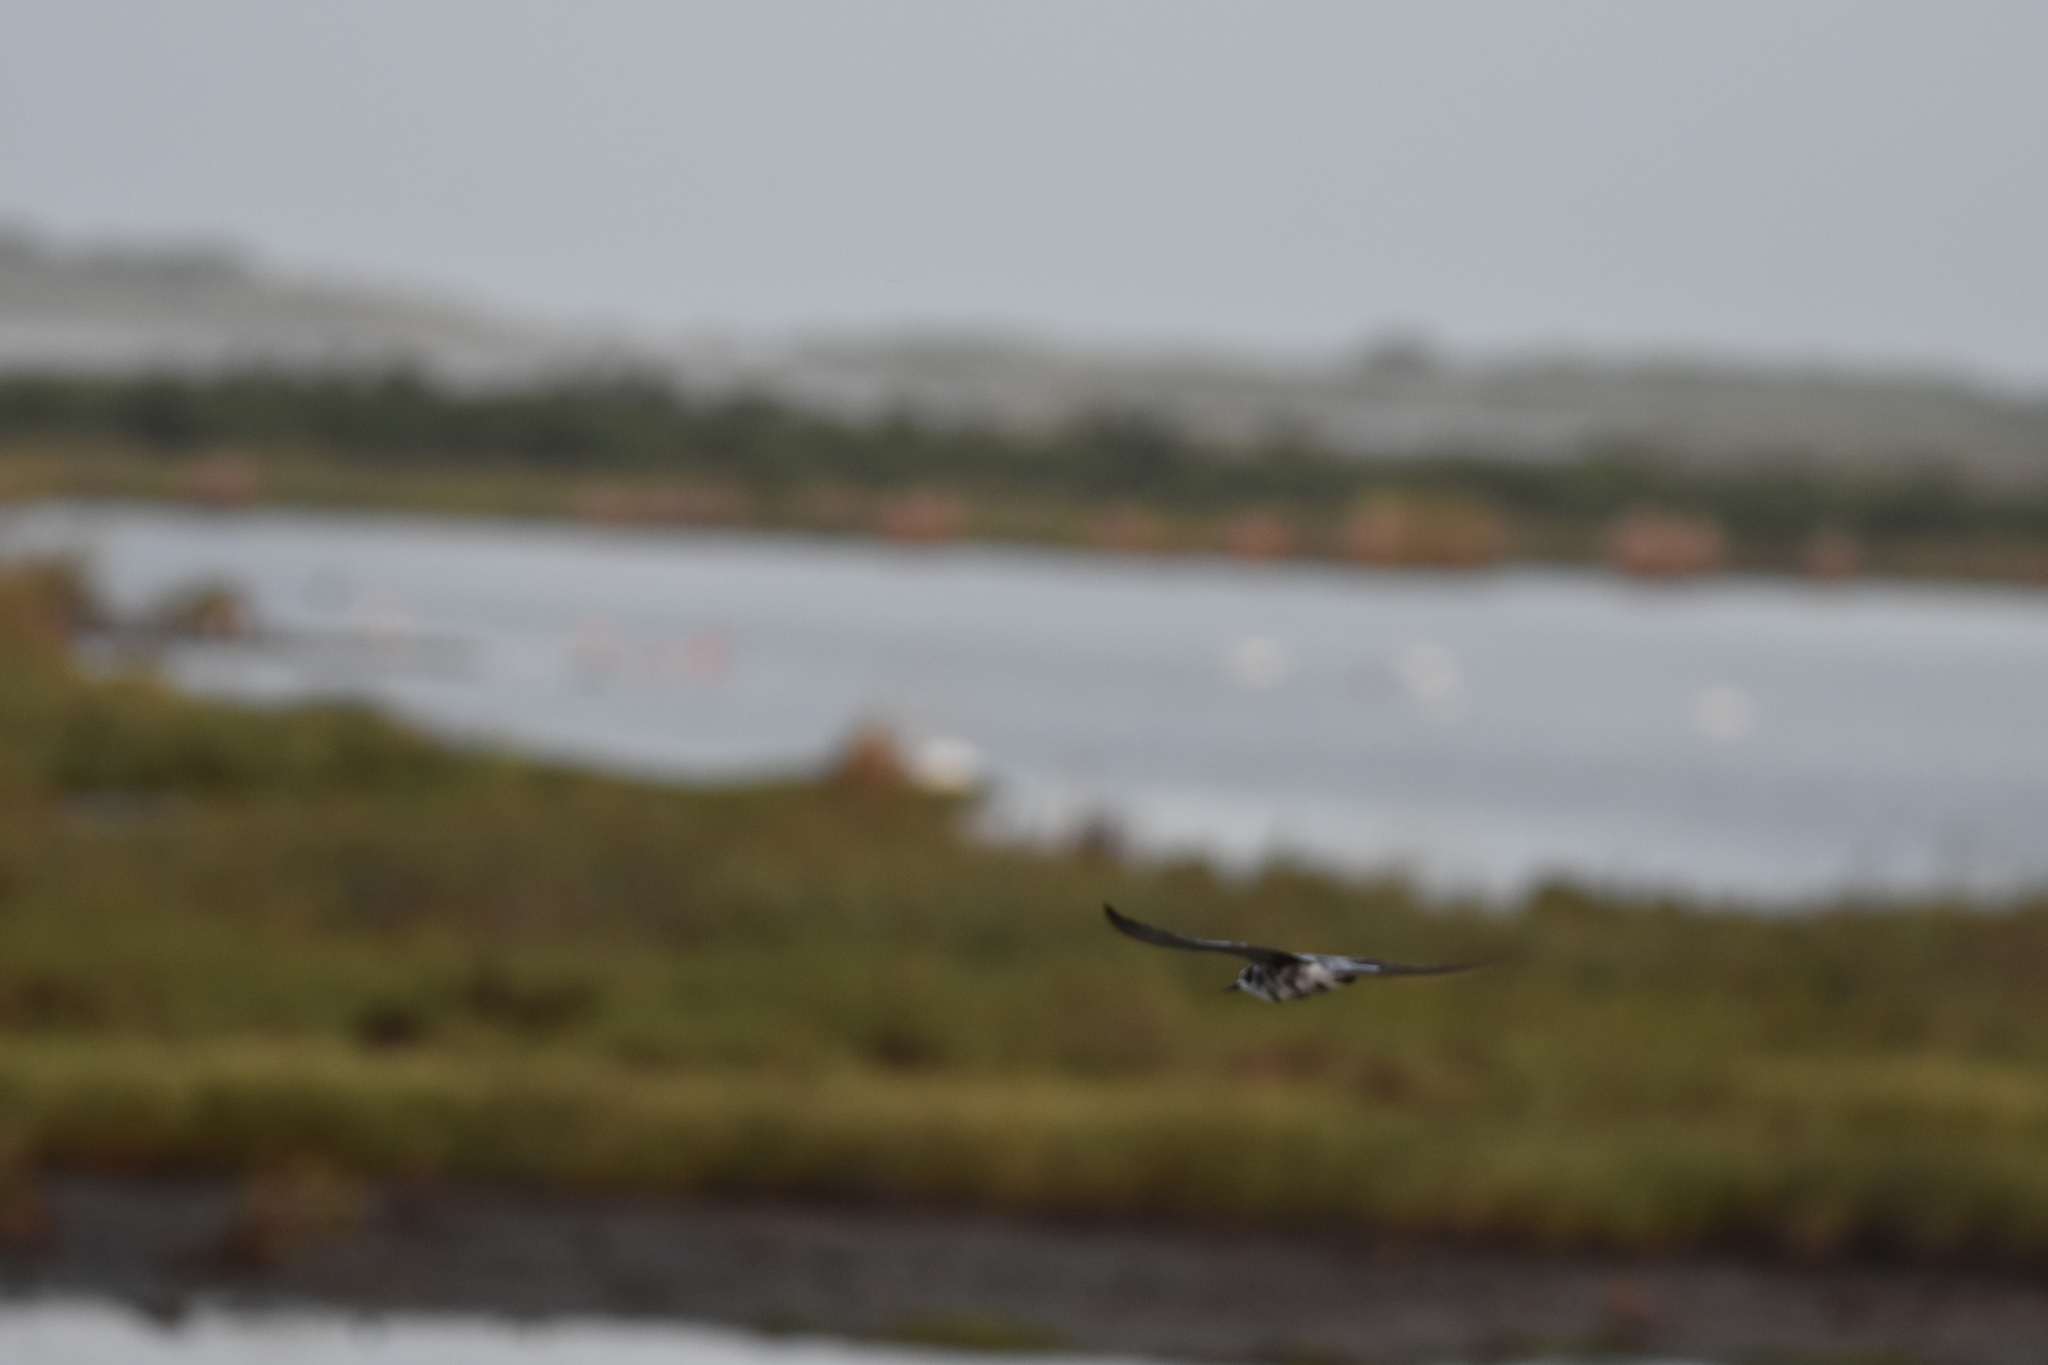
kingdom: Animalia
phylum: Chordata
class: Aves
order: Charadriiformes
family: Laridae
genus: Chlidonias
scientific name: Chlidonias niger
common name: Black tern
